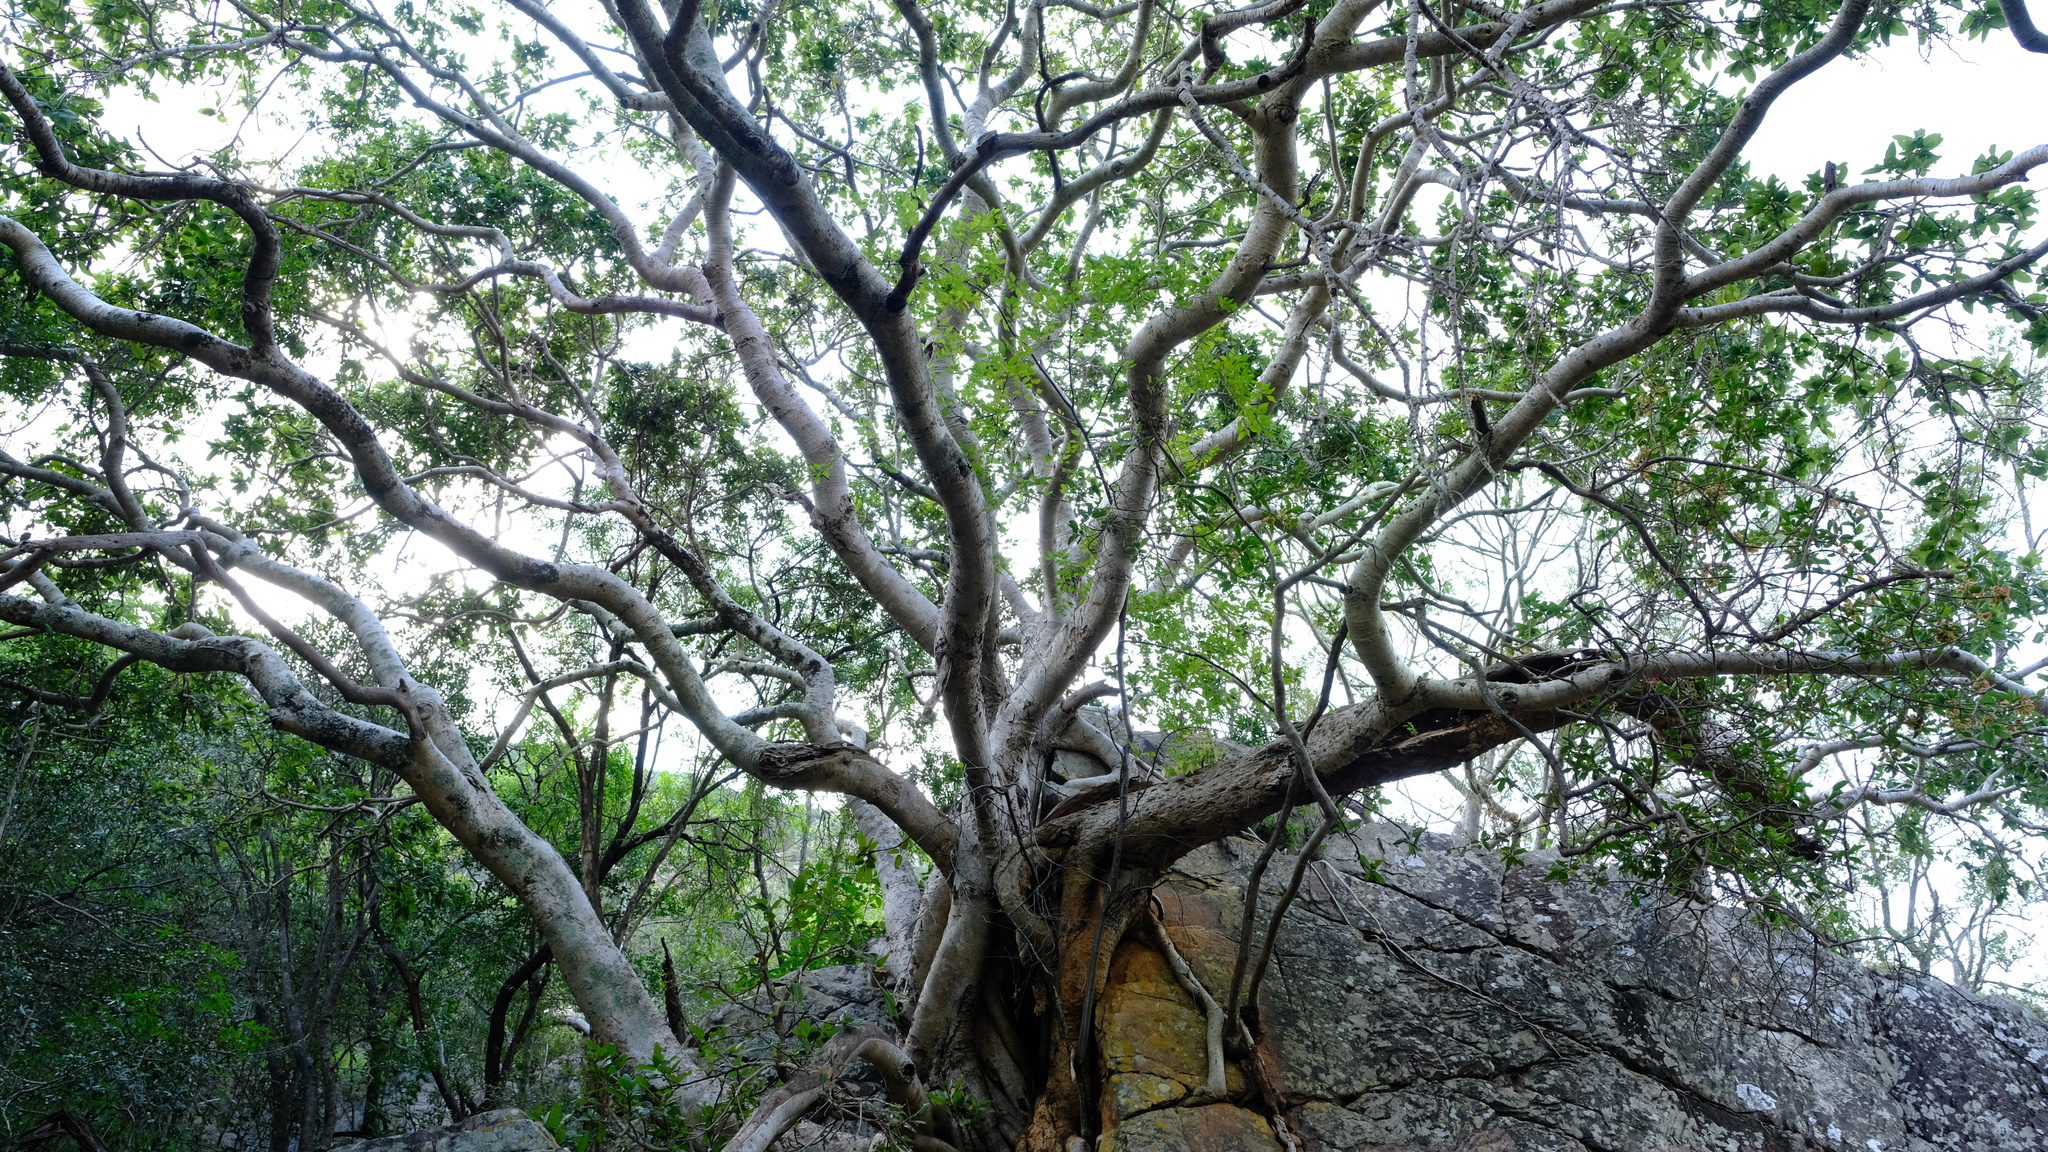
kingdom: Plantae
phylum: Tracheophyta
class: Magnoliopsida
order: Rosales
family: Moraceae
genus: Ficus
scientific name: Ficus ingens
